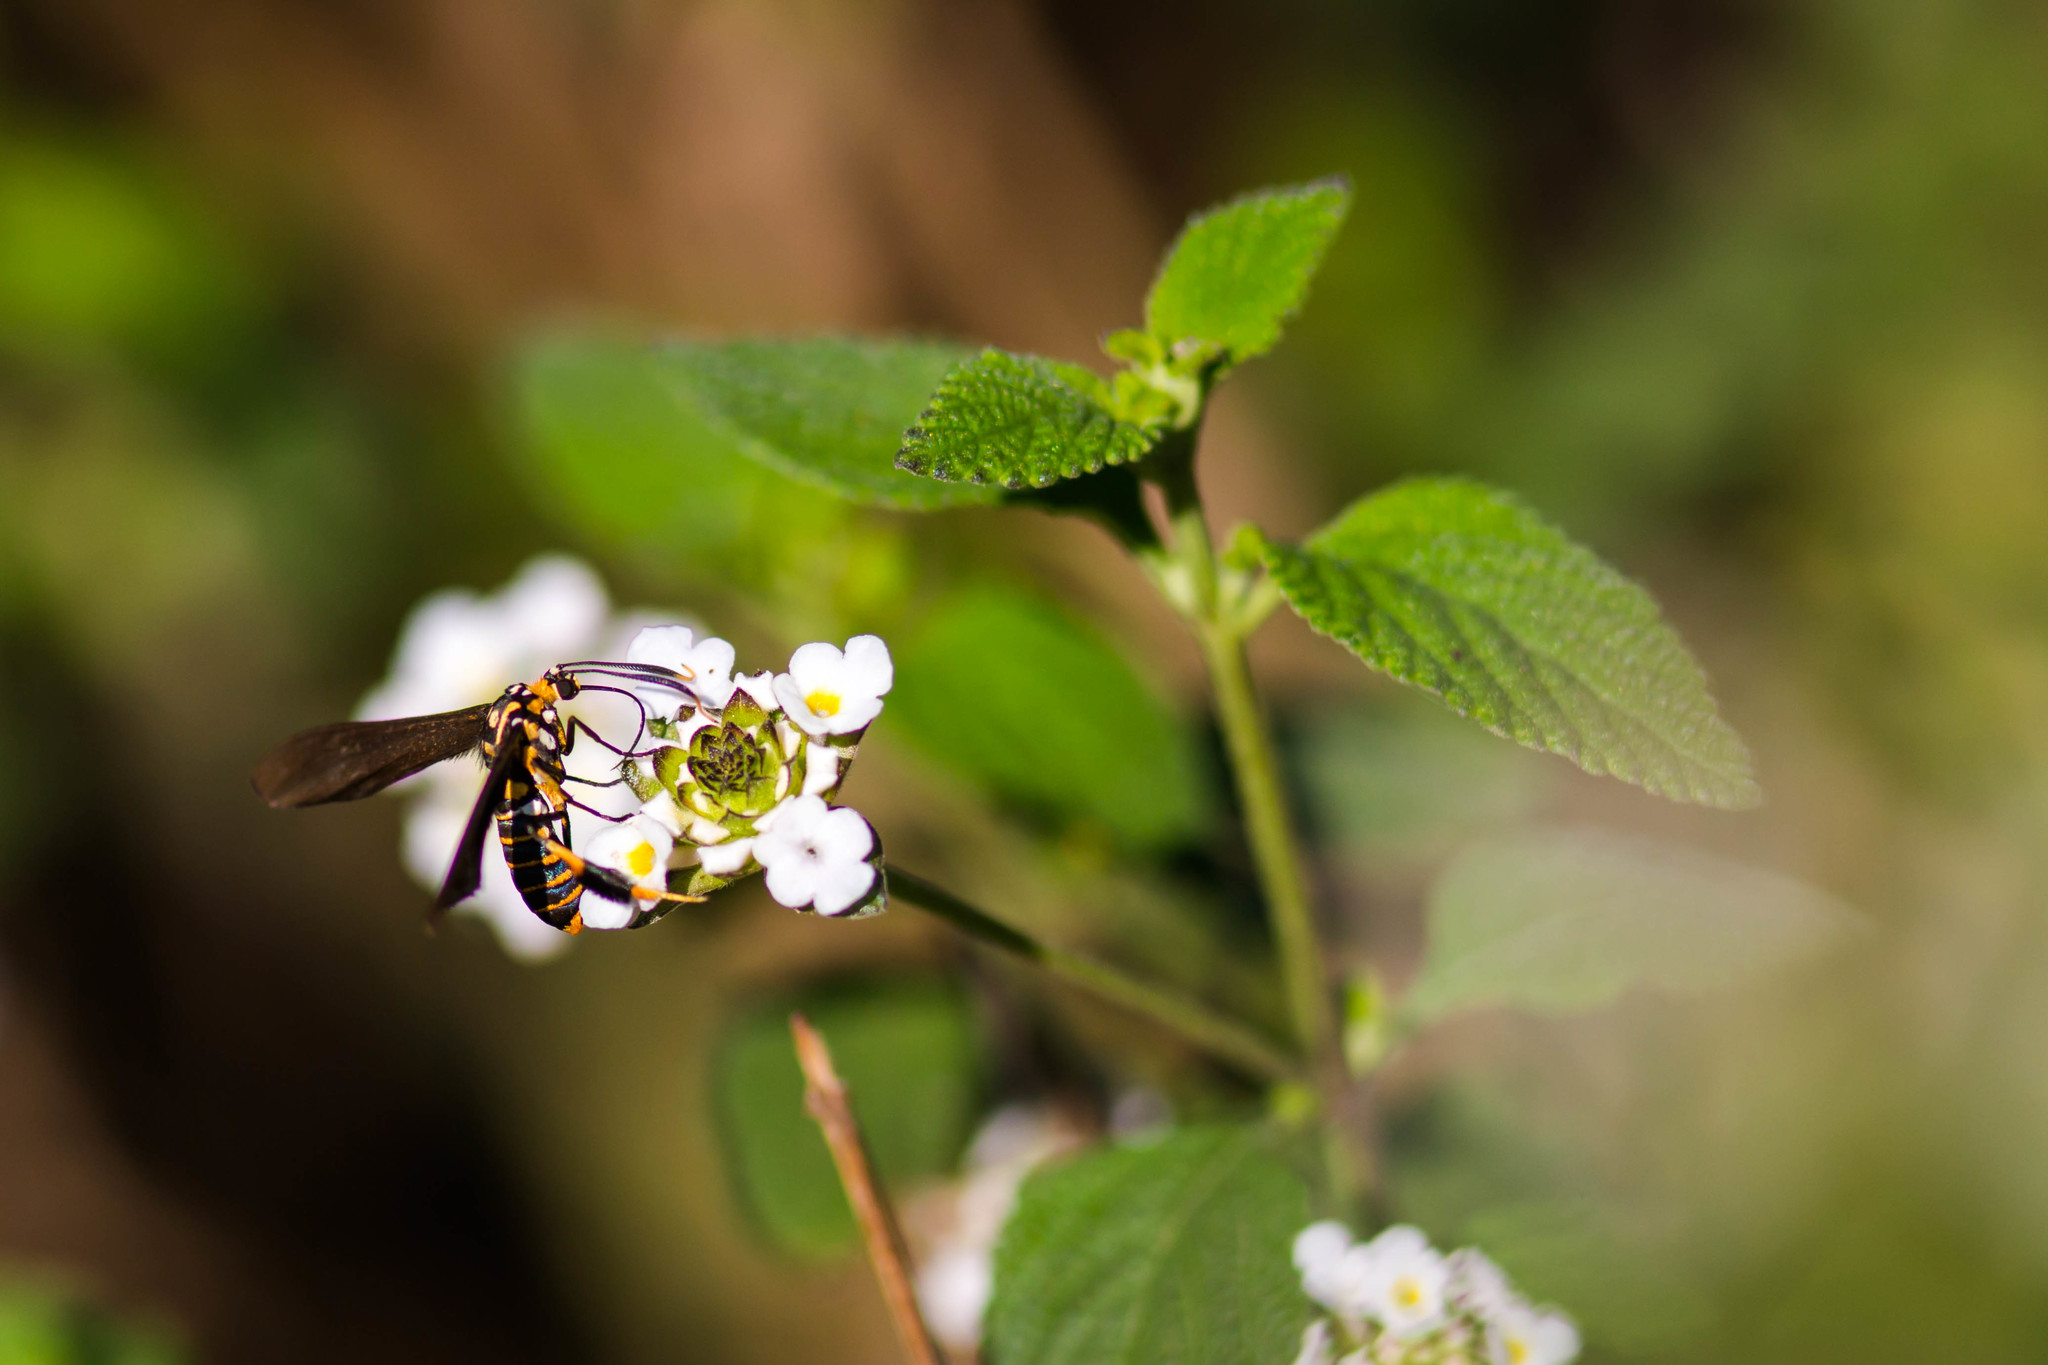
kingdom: Animalia
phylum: Arthropoda
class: Insecta
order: Lepidoptera
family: Erebidae
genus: Horama
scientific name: Horama panthalon
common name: Texas wasp moth
